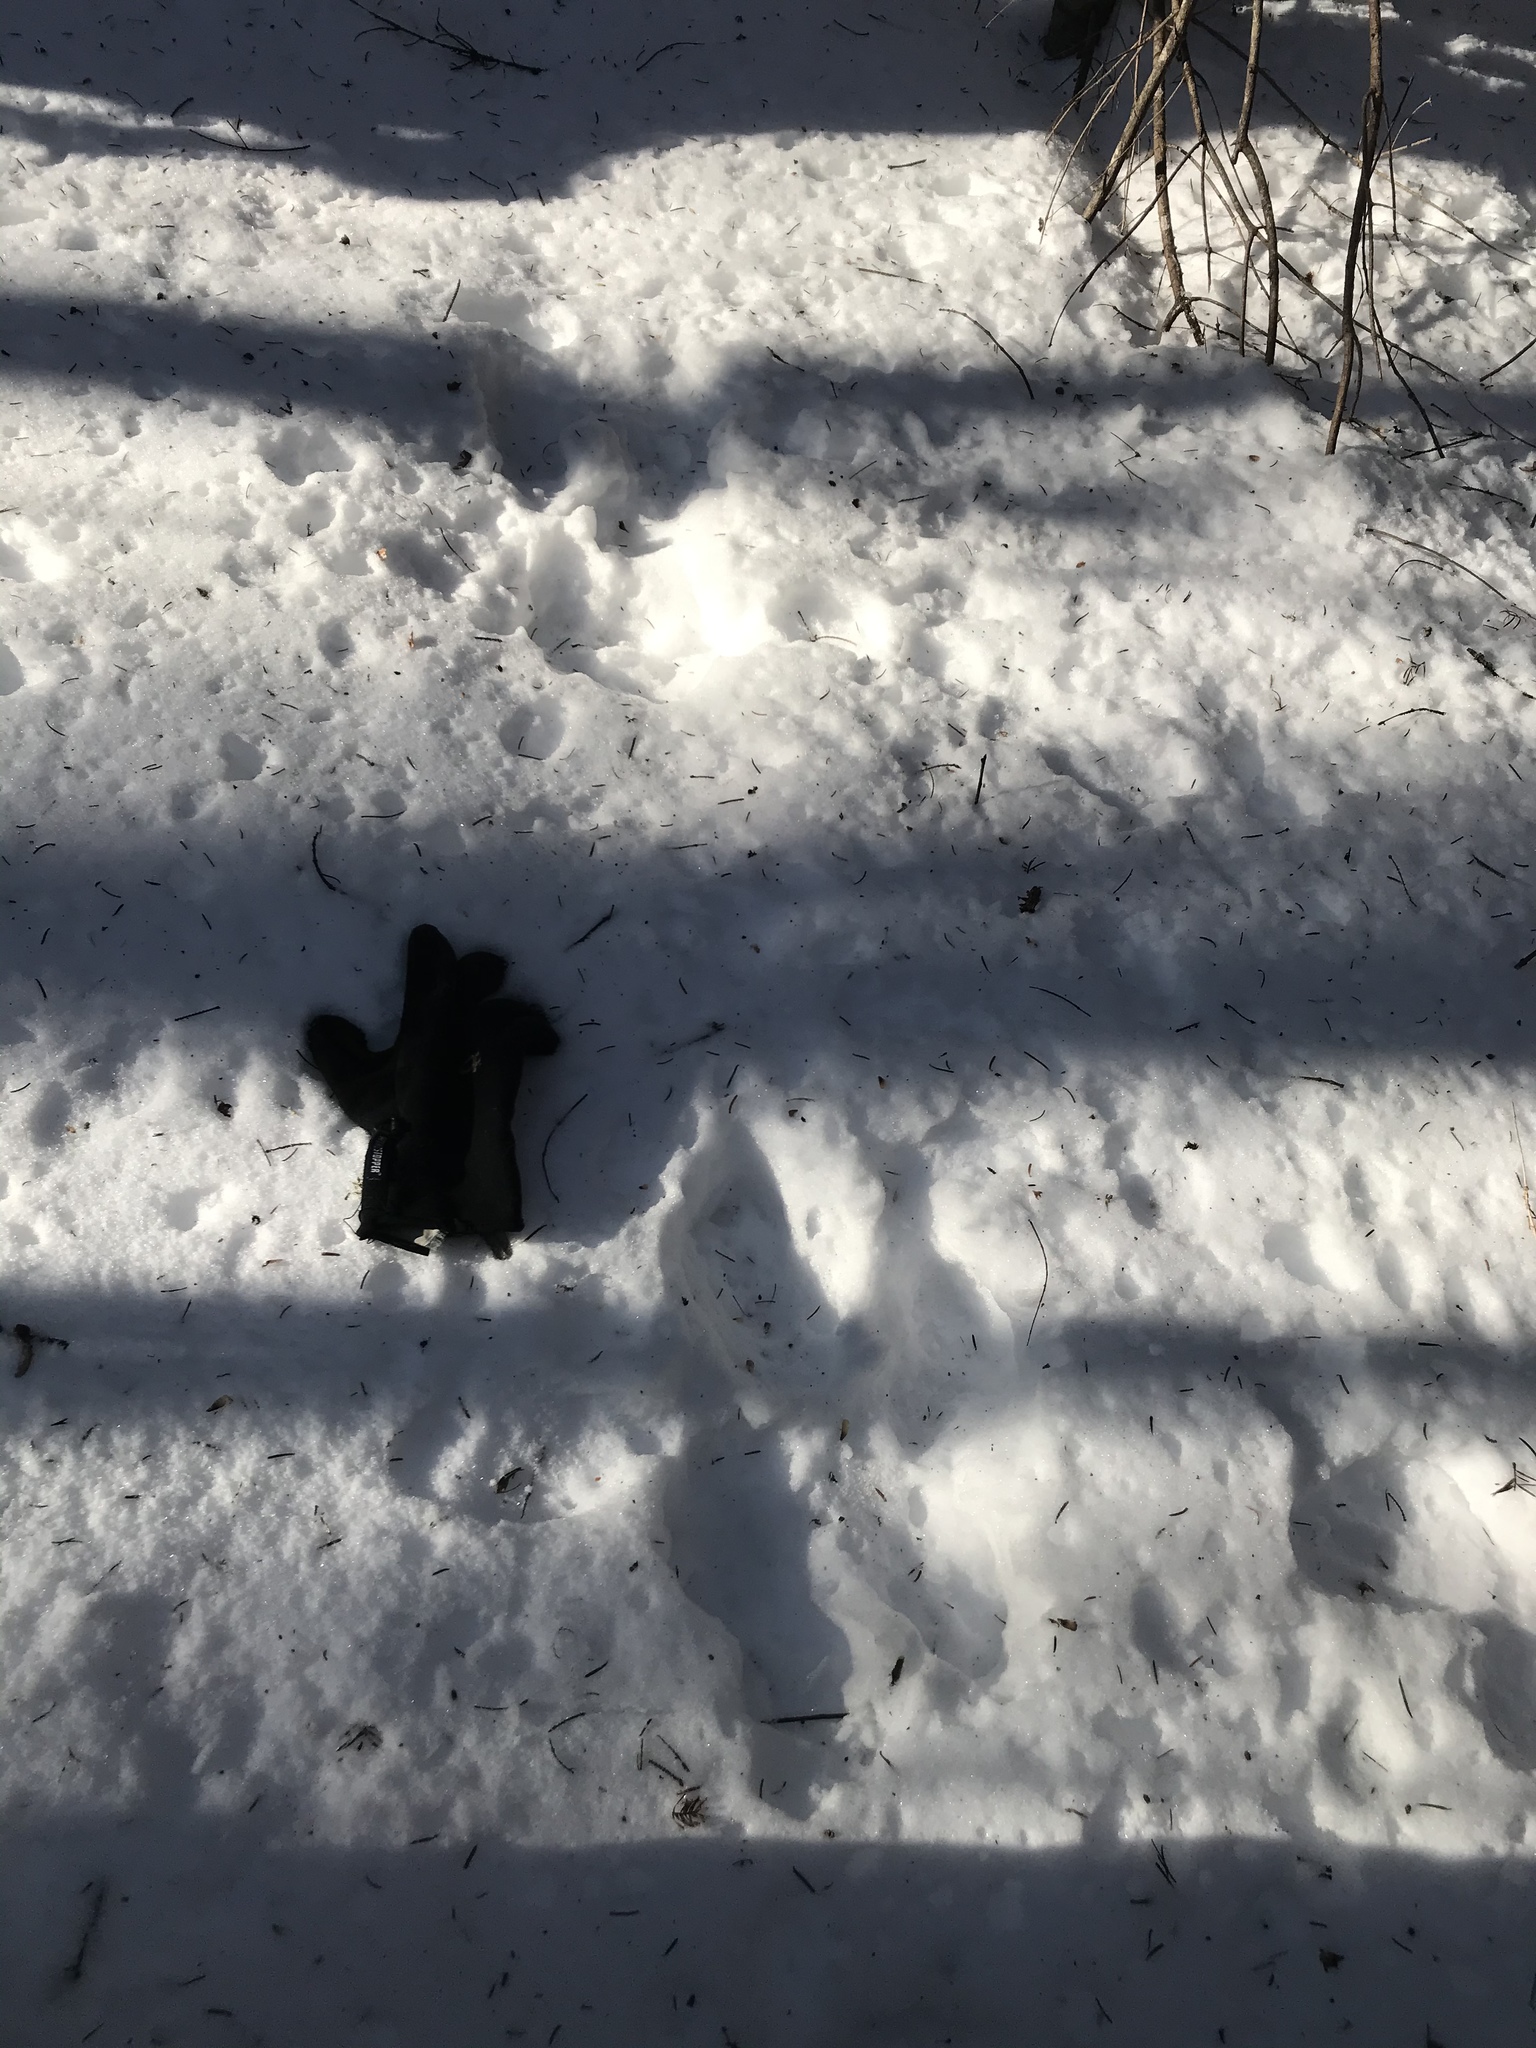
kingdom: Animalia
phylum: Chordata
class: Mammalia
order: Lagomorpha
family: Leporidae
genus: Lepus
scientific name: Lepus americanus
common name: Snowshoe hare
